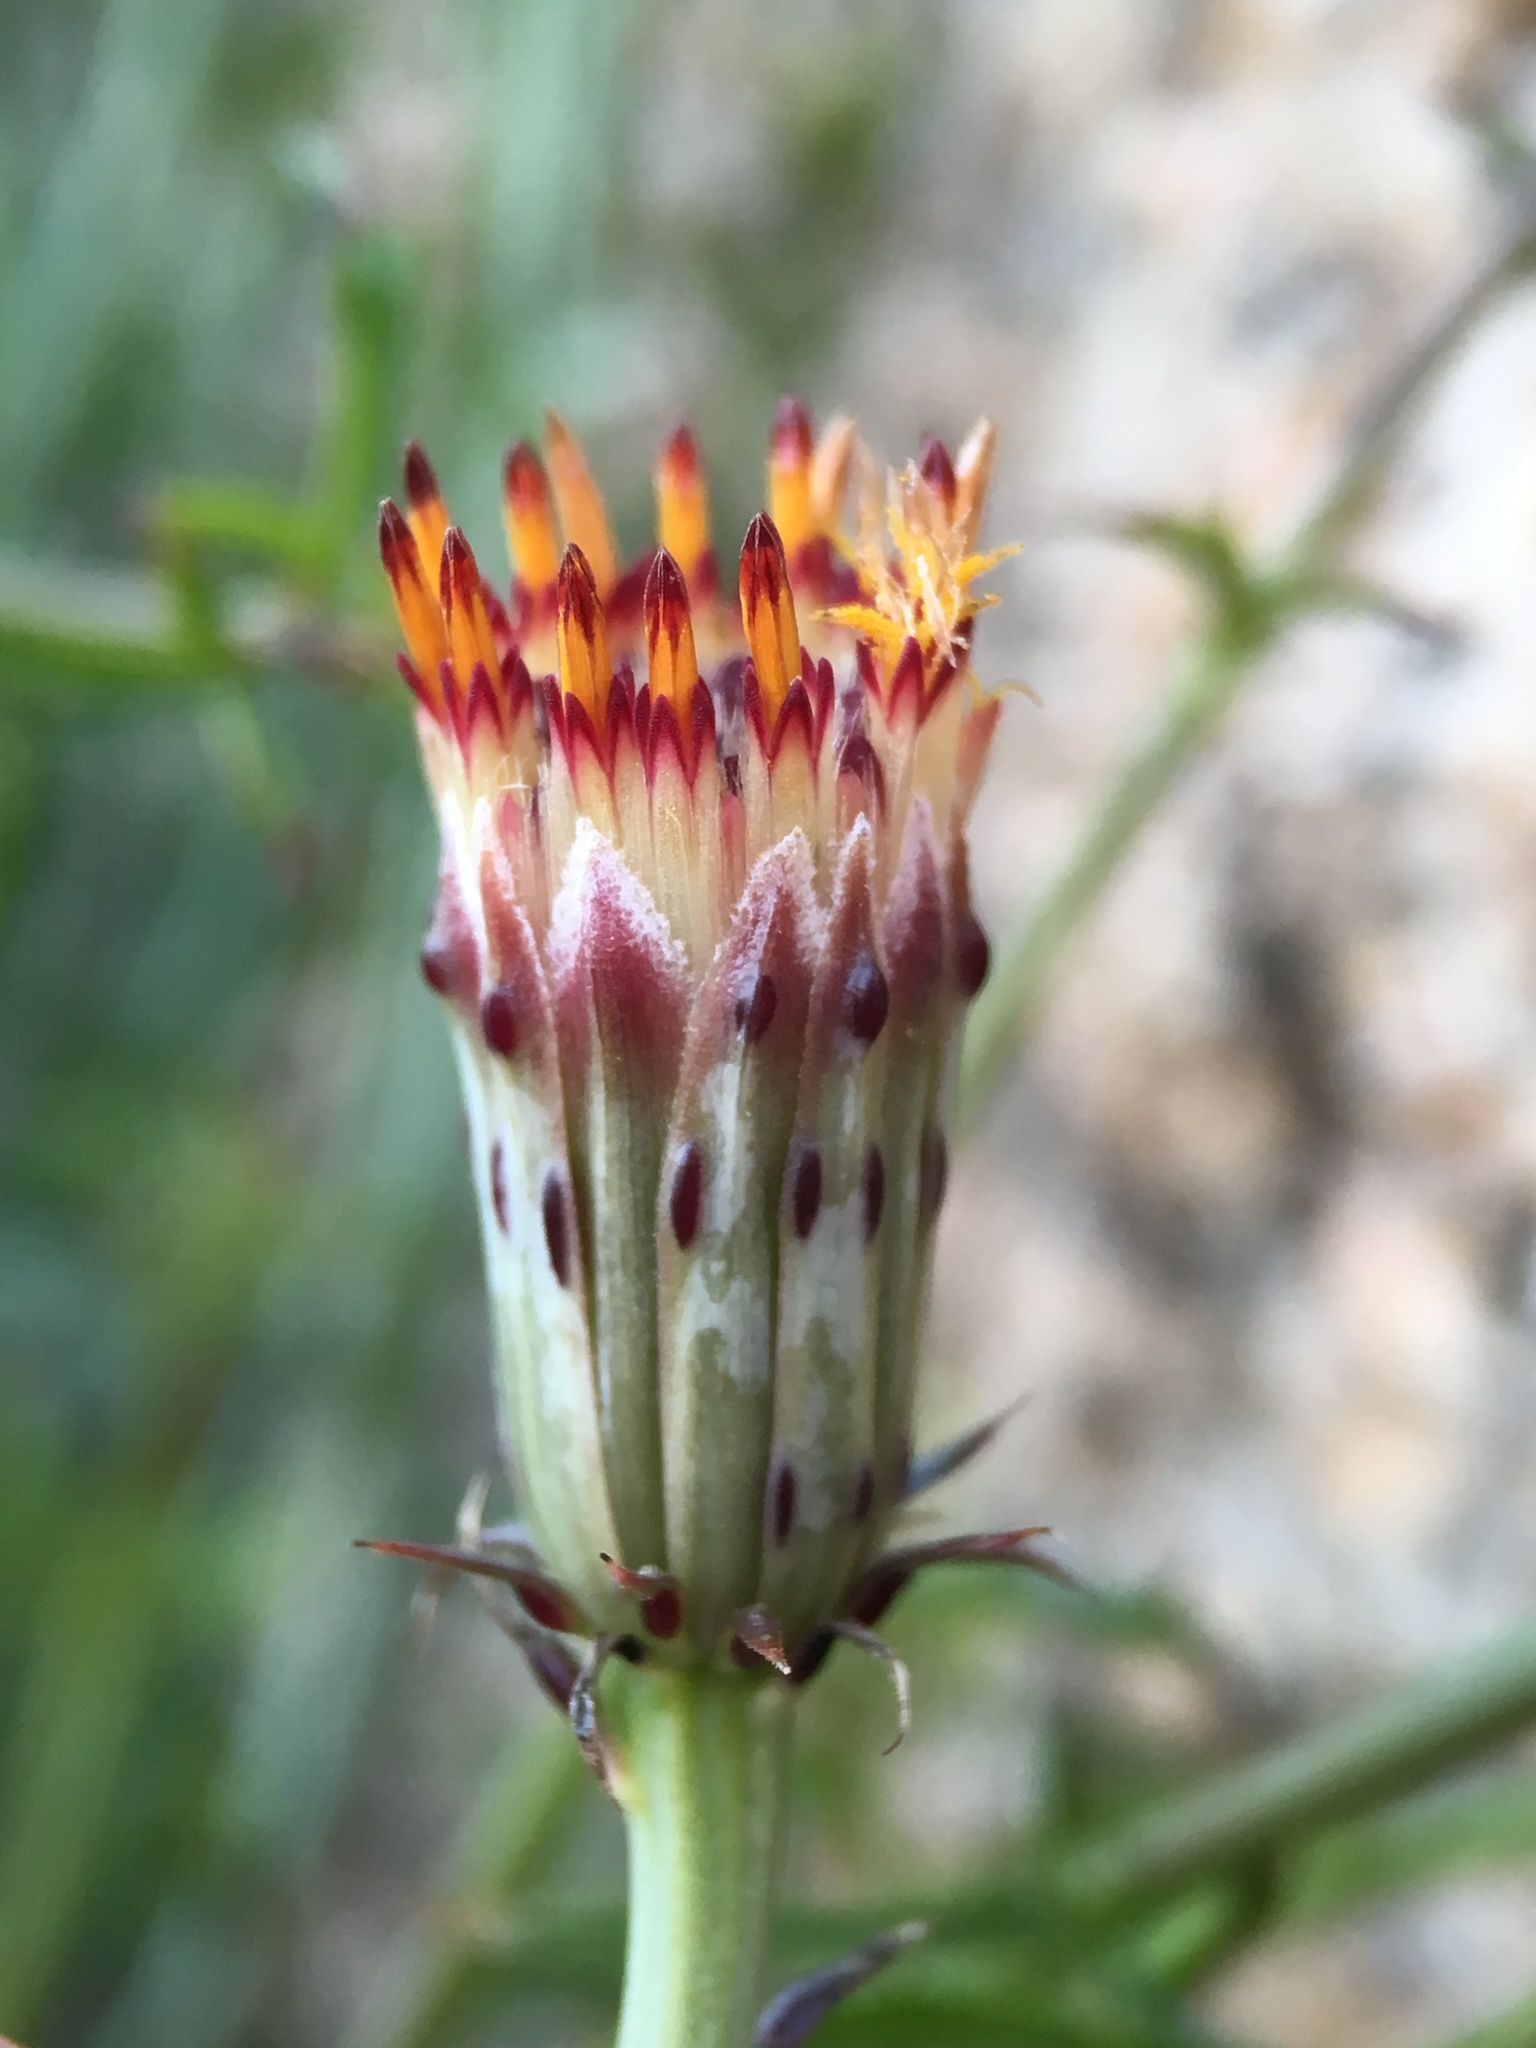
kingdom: Plantae
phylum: Tracheophyta
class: Magnoliopsida
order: Asterales
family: Asteraceae
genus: Adenophyllum
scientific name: Adenophyllum porophylloides
